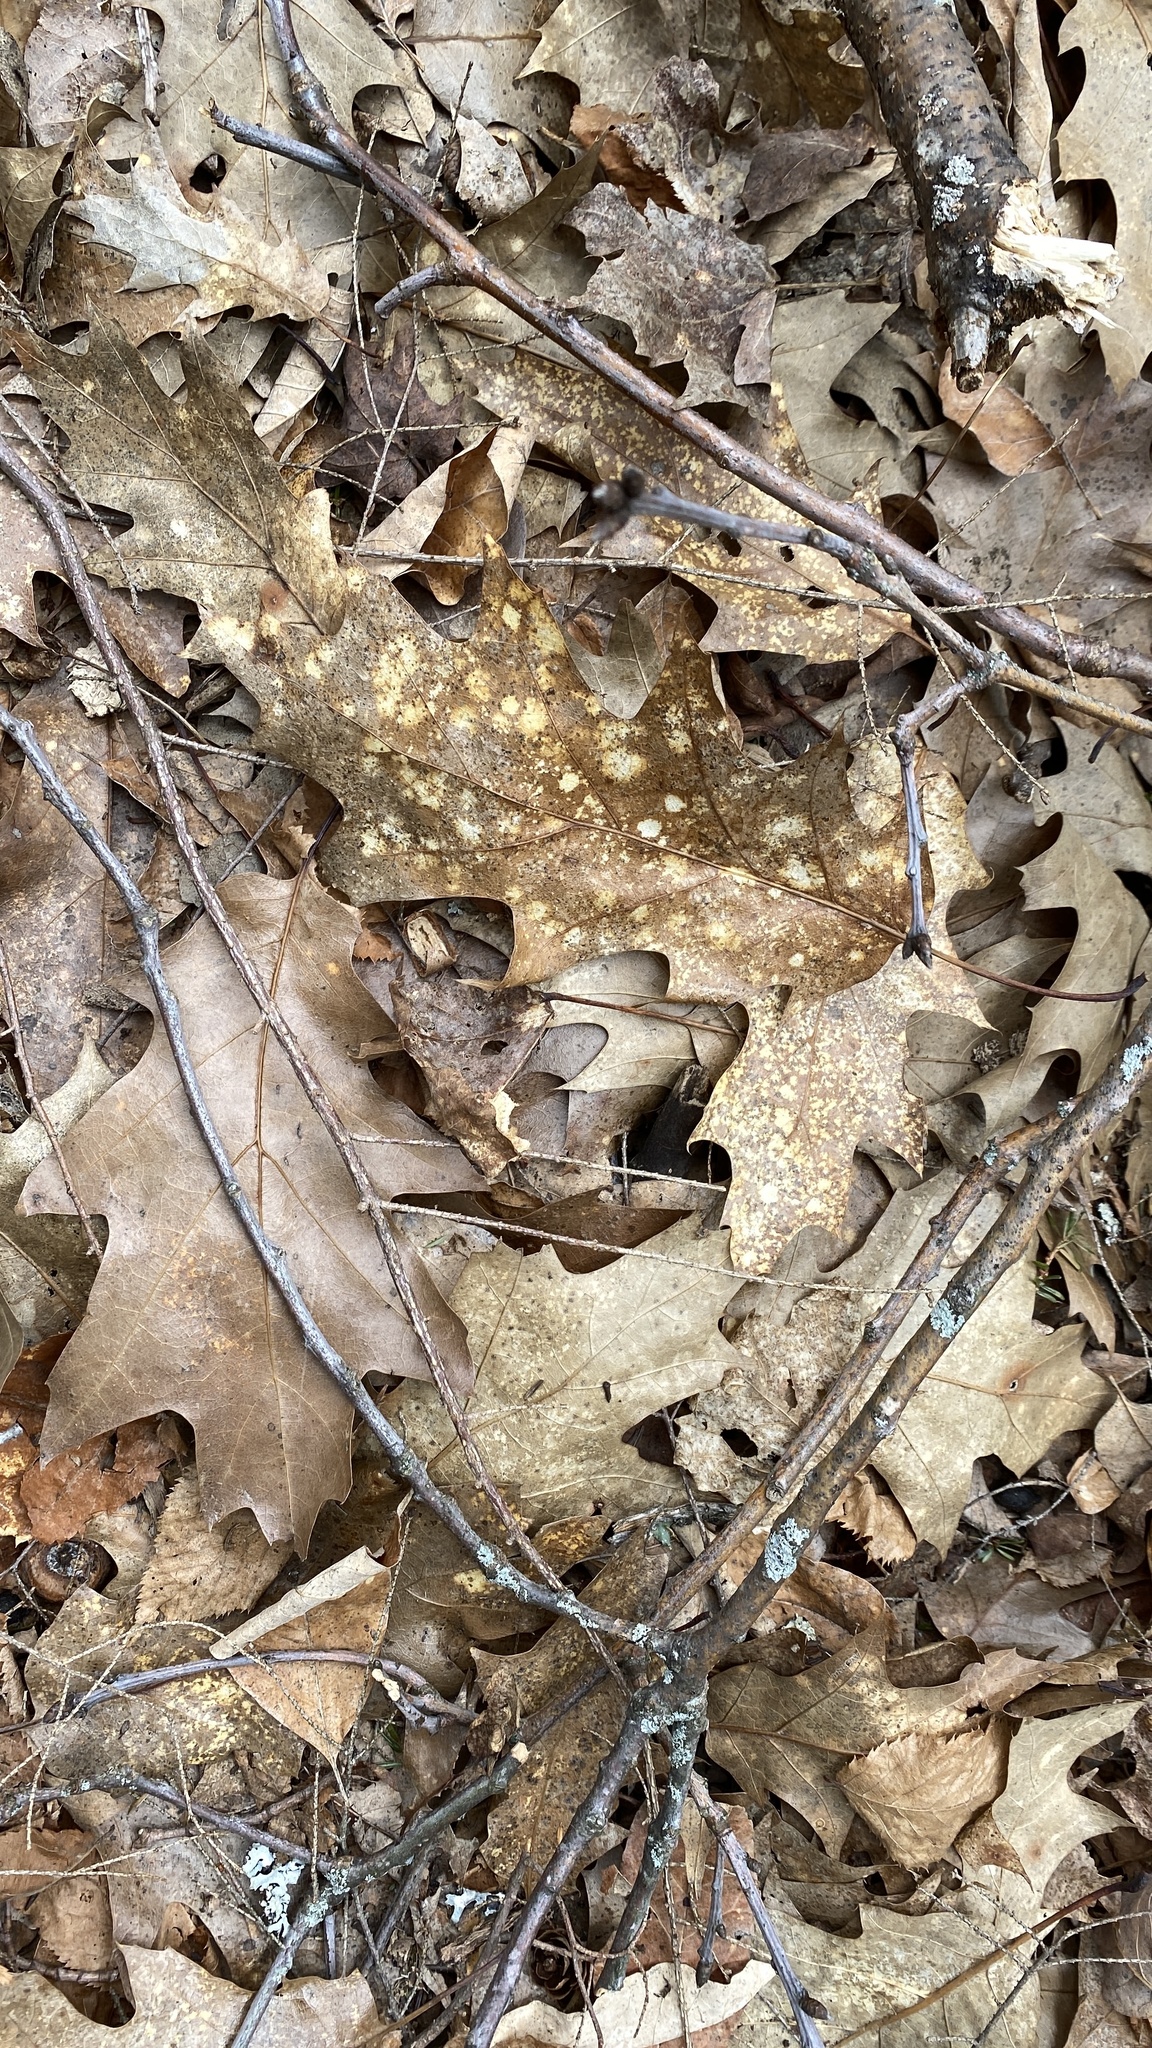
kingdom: Plantae
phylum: Tracheophyta
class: Magnoliopsida
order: Fagales
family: Fagaceae
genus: Quercus
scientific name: Quercus rubra
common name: Red oak
